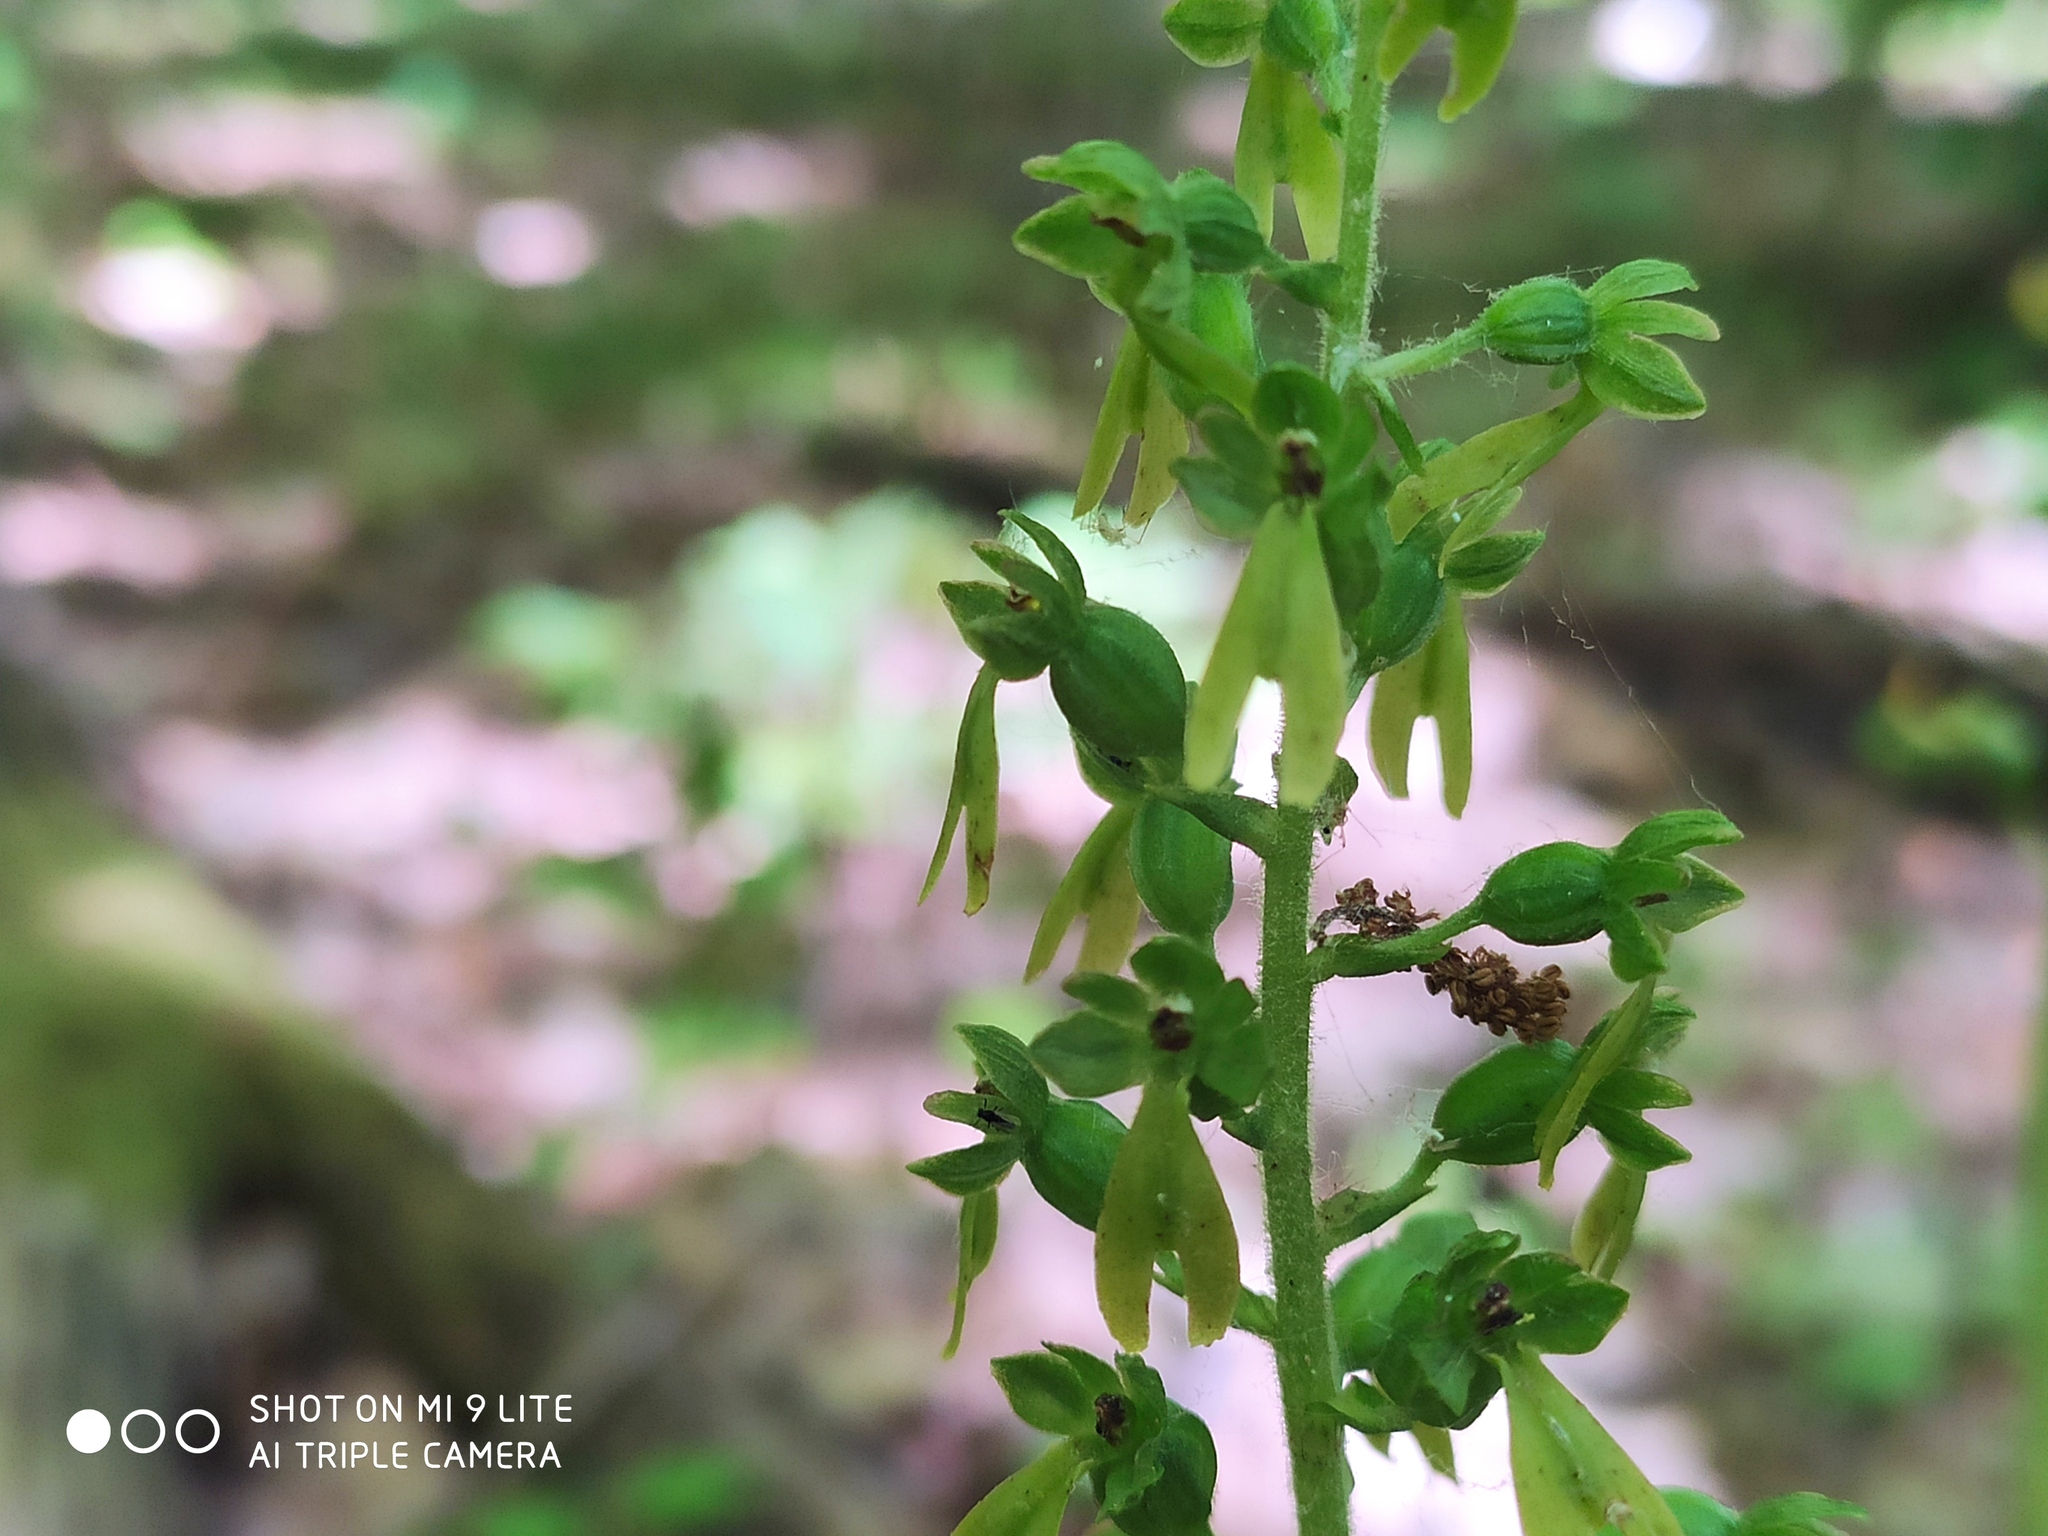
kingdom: Plantae
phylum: Tracheophyta
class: Liliopsida
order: Asparagales
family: Orchidaceae
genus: Neottia
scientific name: Neottia ovata
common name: Common twayblade
